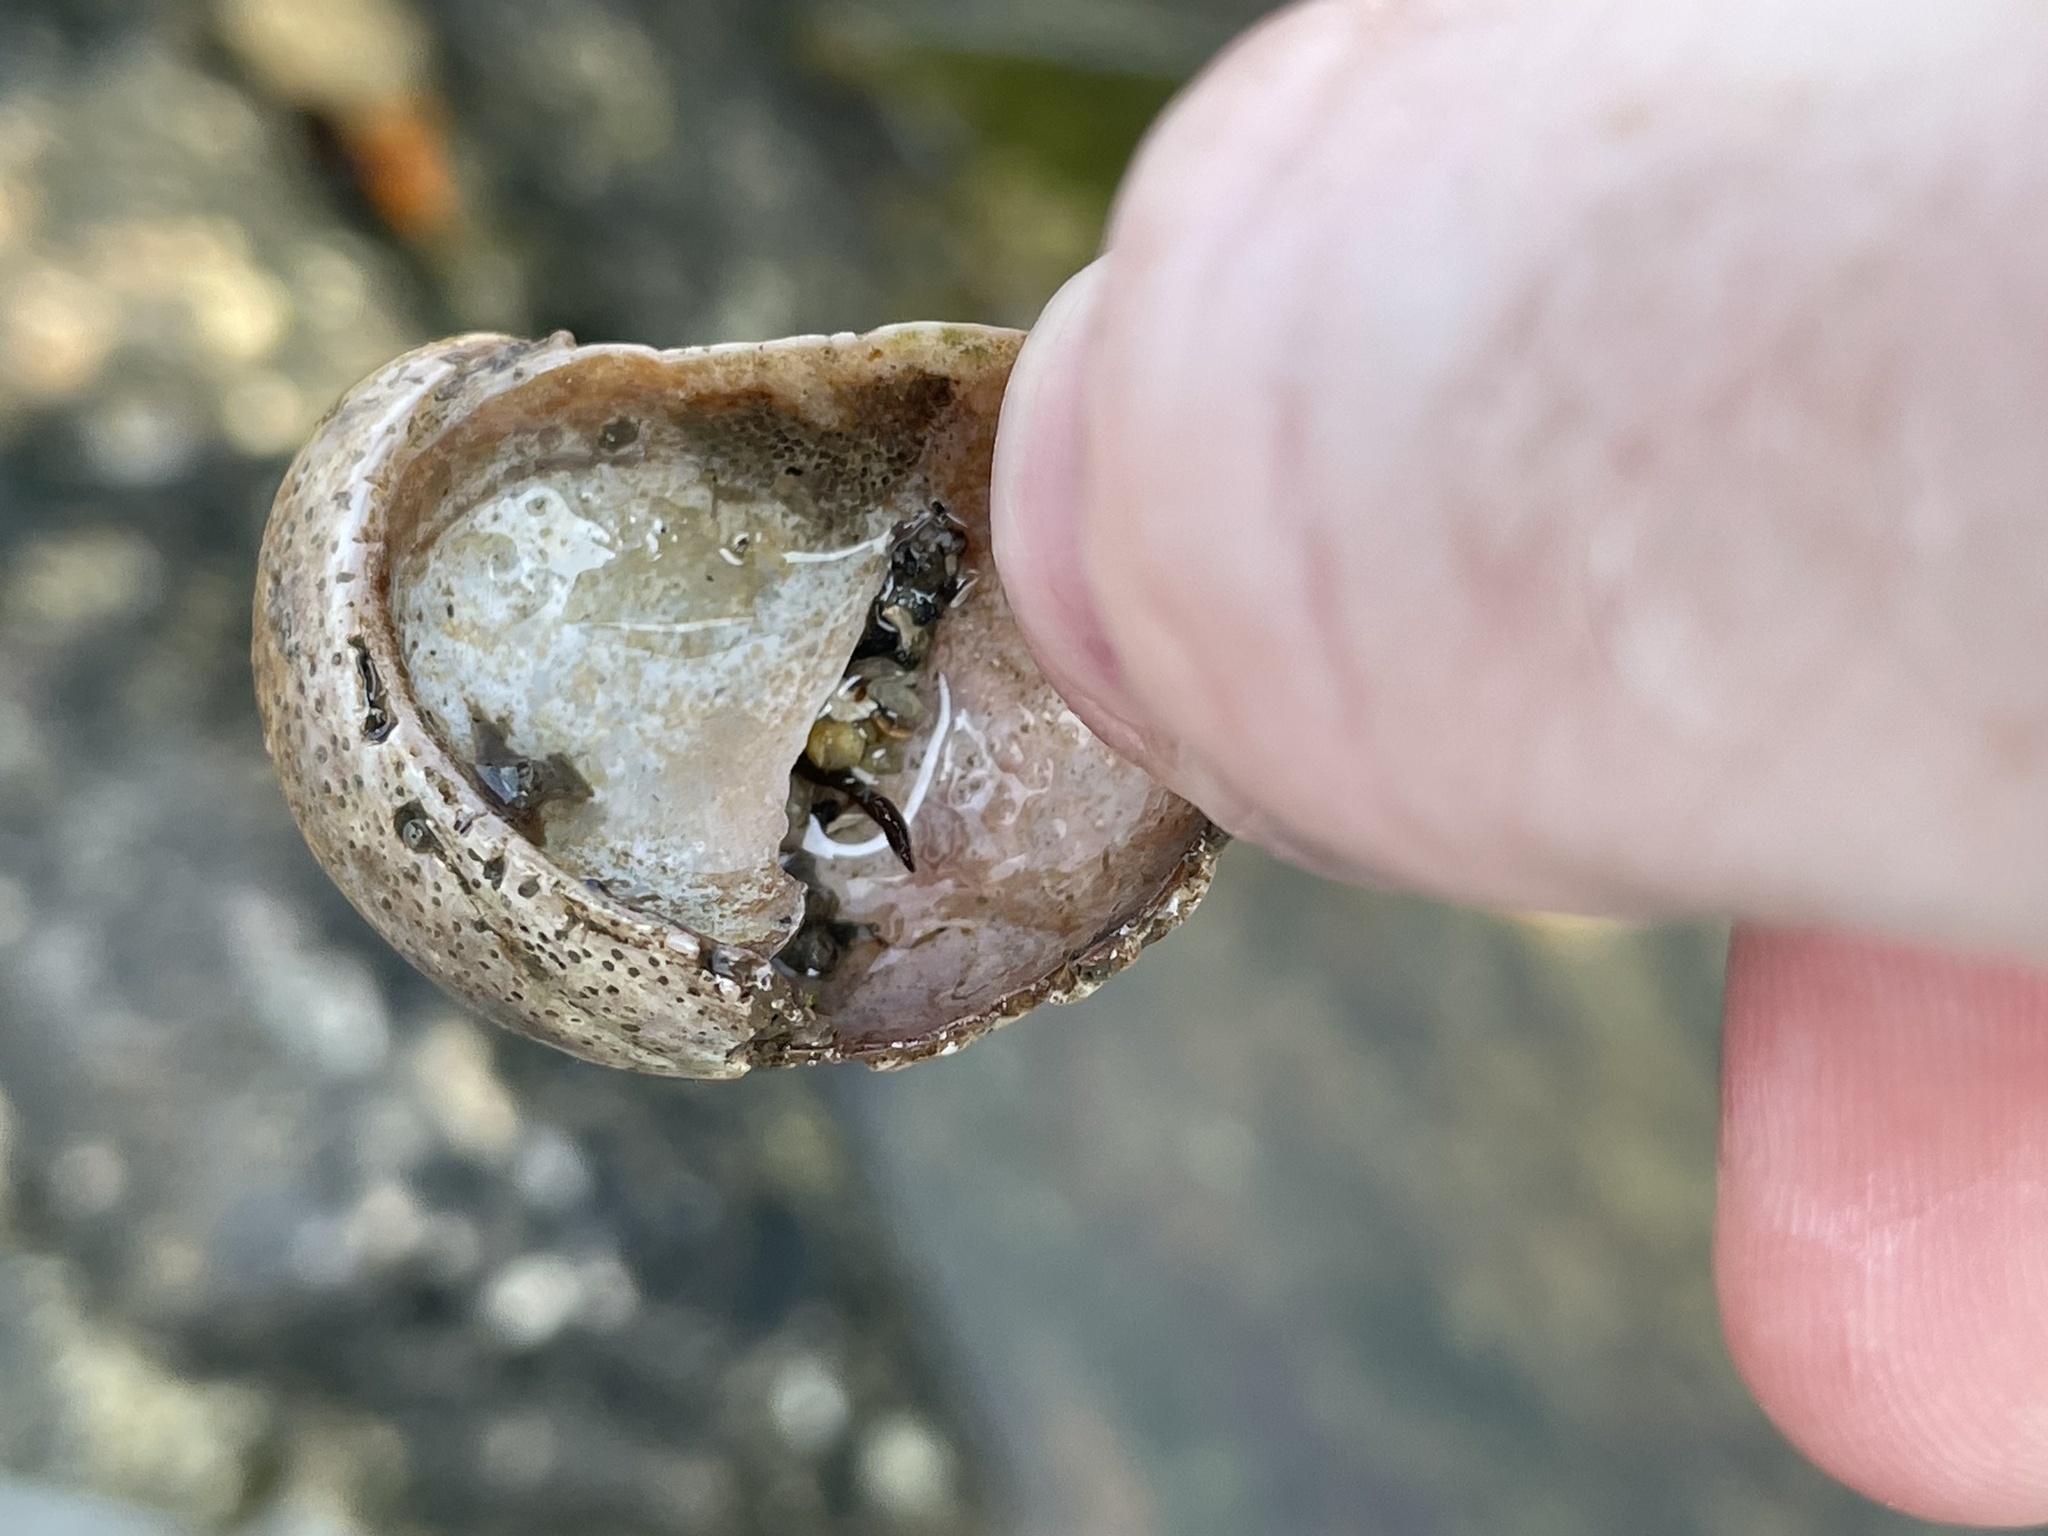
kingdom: Animalia
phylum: Mollusca
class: Gastropoda
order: Littorinimorpha
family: Calyptraeidae
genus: Crepidula
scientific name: Crepidula fornicata
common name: Slipper limpet
